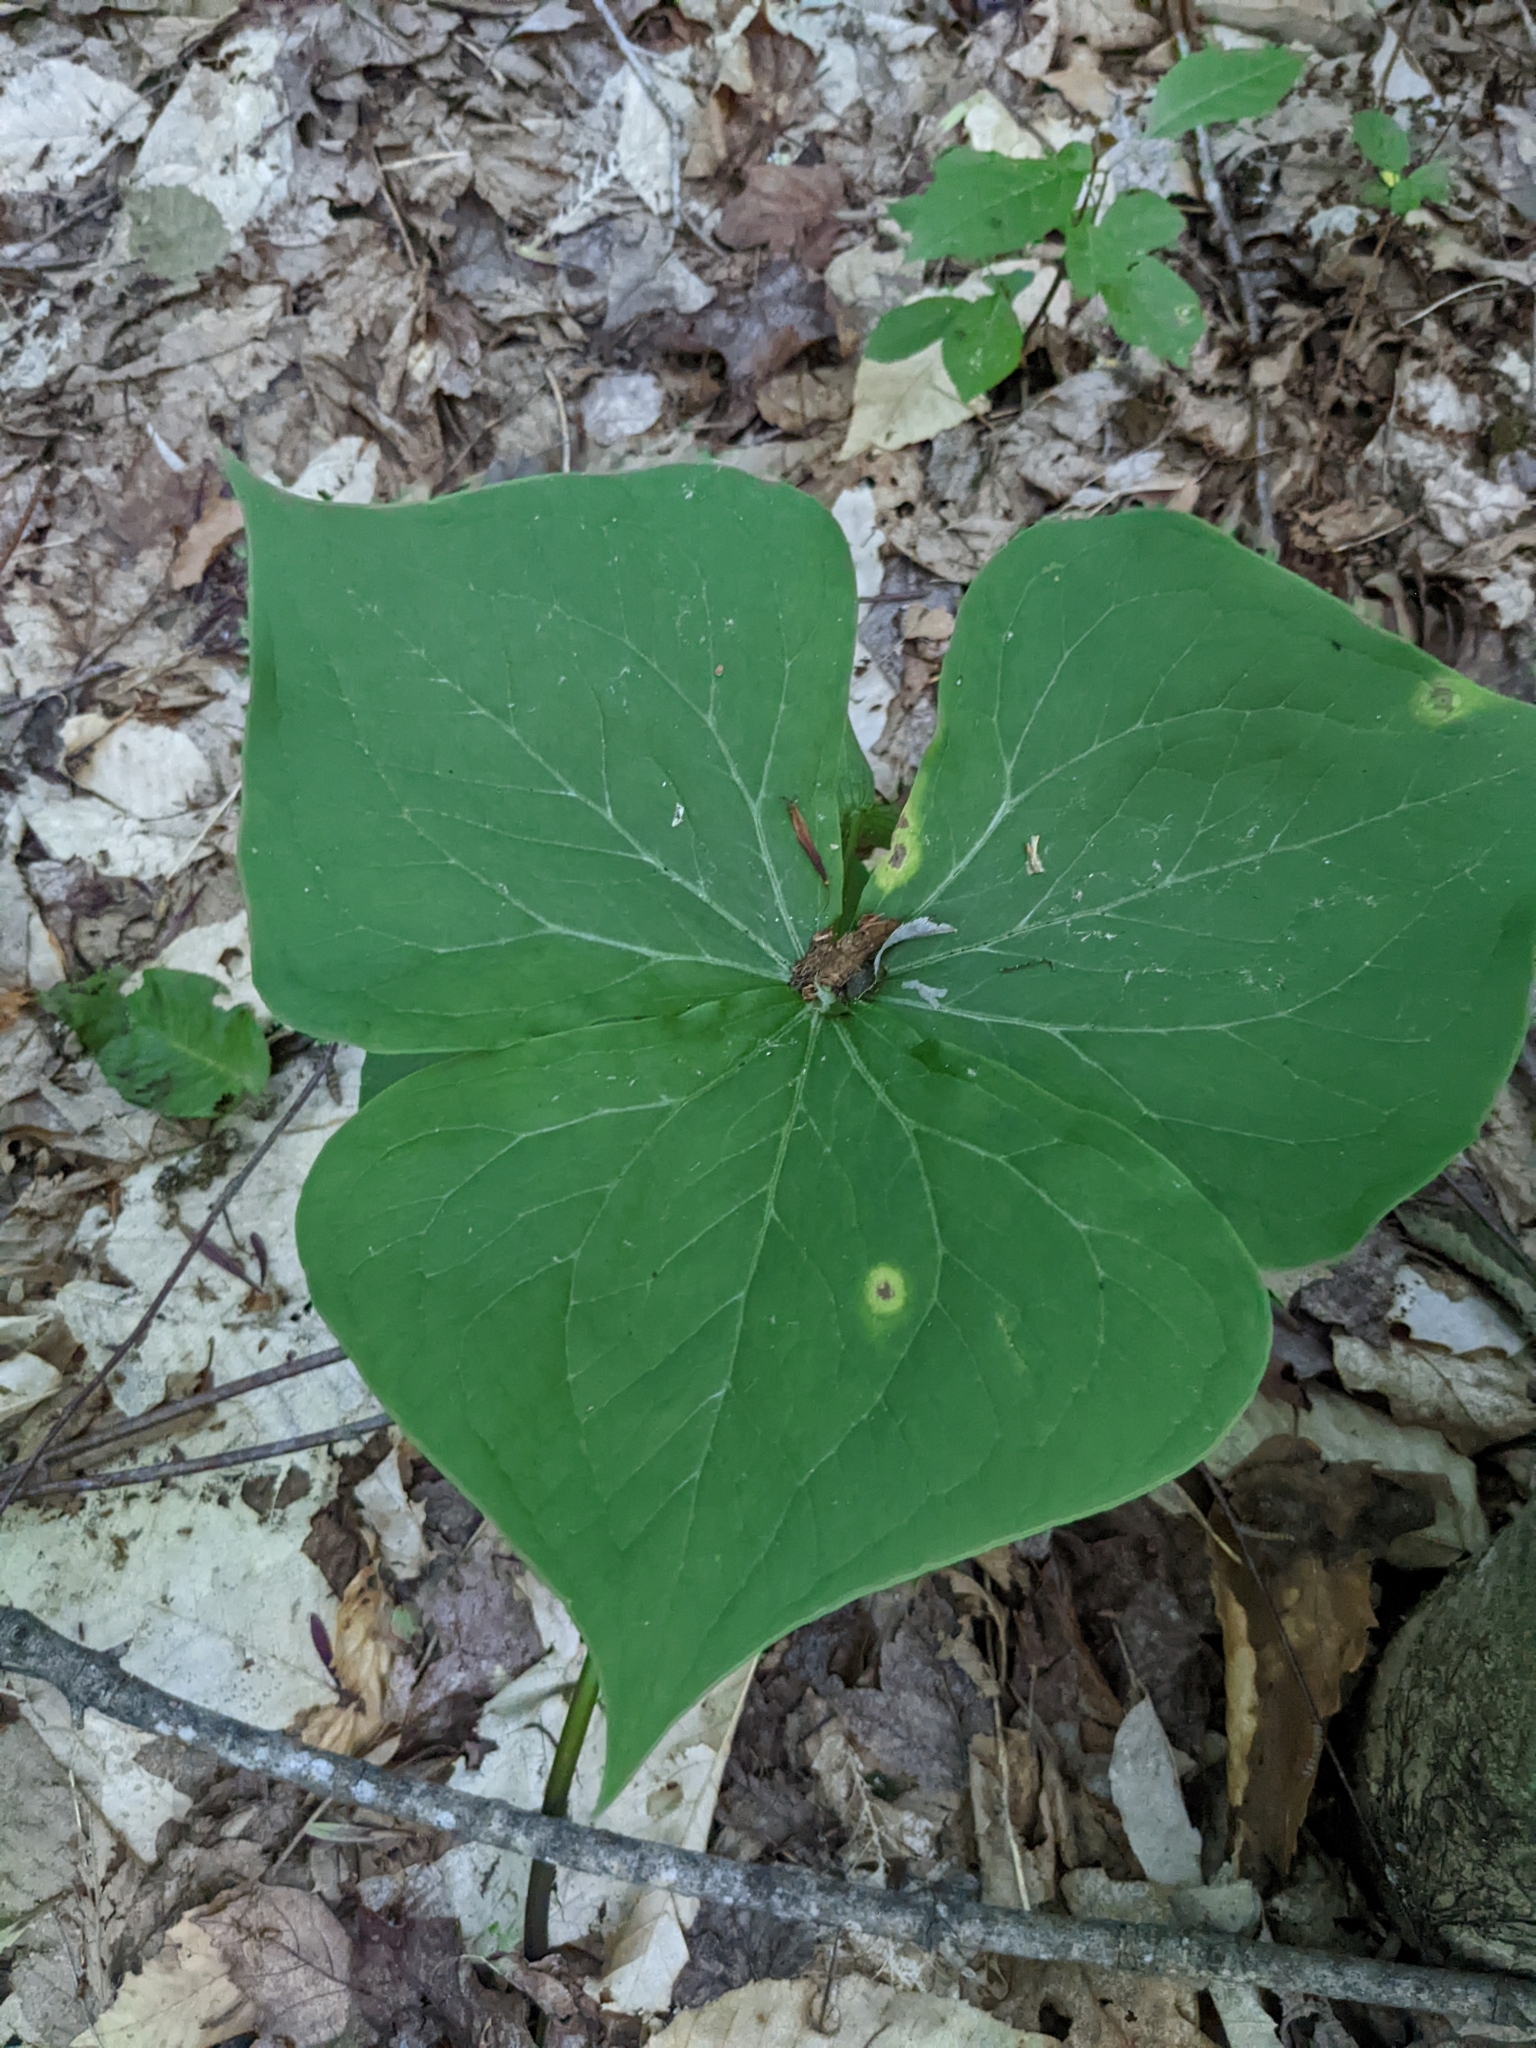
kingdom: Plantae
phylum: Tracheophyta
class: Liliopsida
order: Liliales
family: Melanthiaceae
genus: Trillium
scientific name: Trillium erectum
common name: Purple trillium
